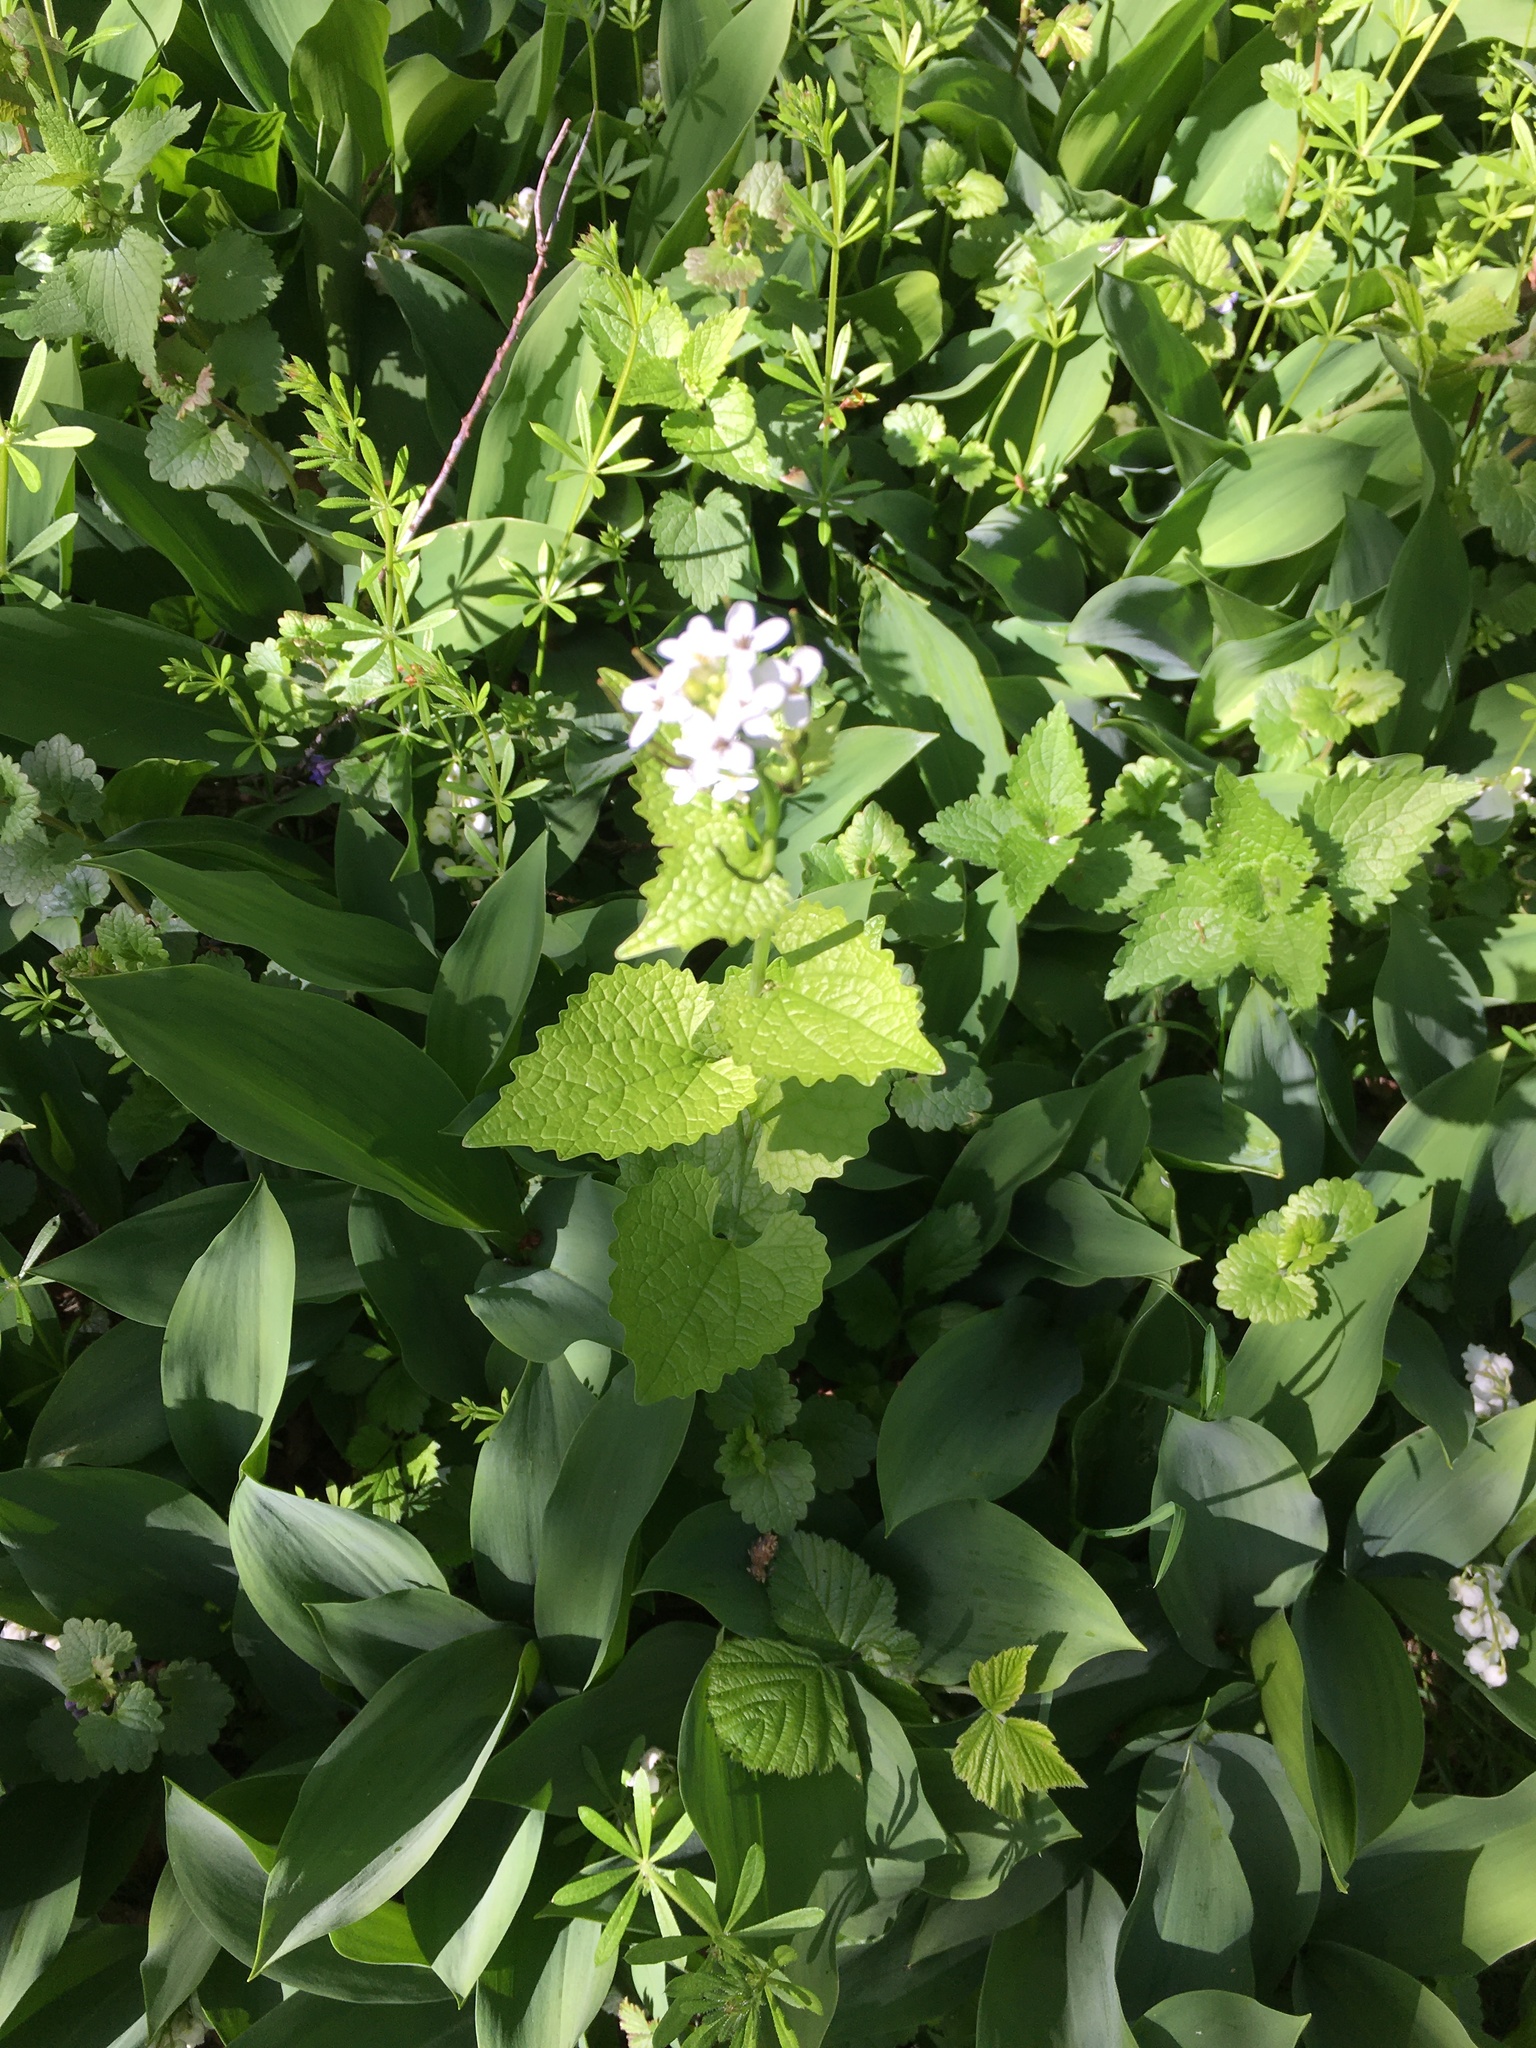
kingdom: Plantae
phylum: Tracheophyta
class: Magnoliopsida
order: Brassicales
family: Brassicaceae
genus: Alliaria
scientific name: Alliaria petiolata
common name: Garlic mustard
